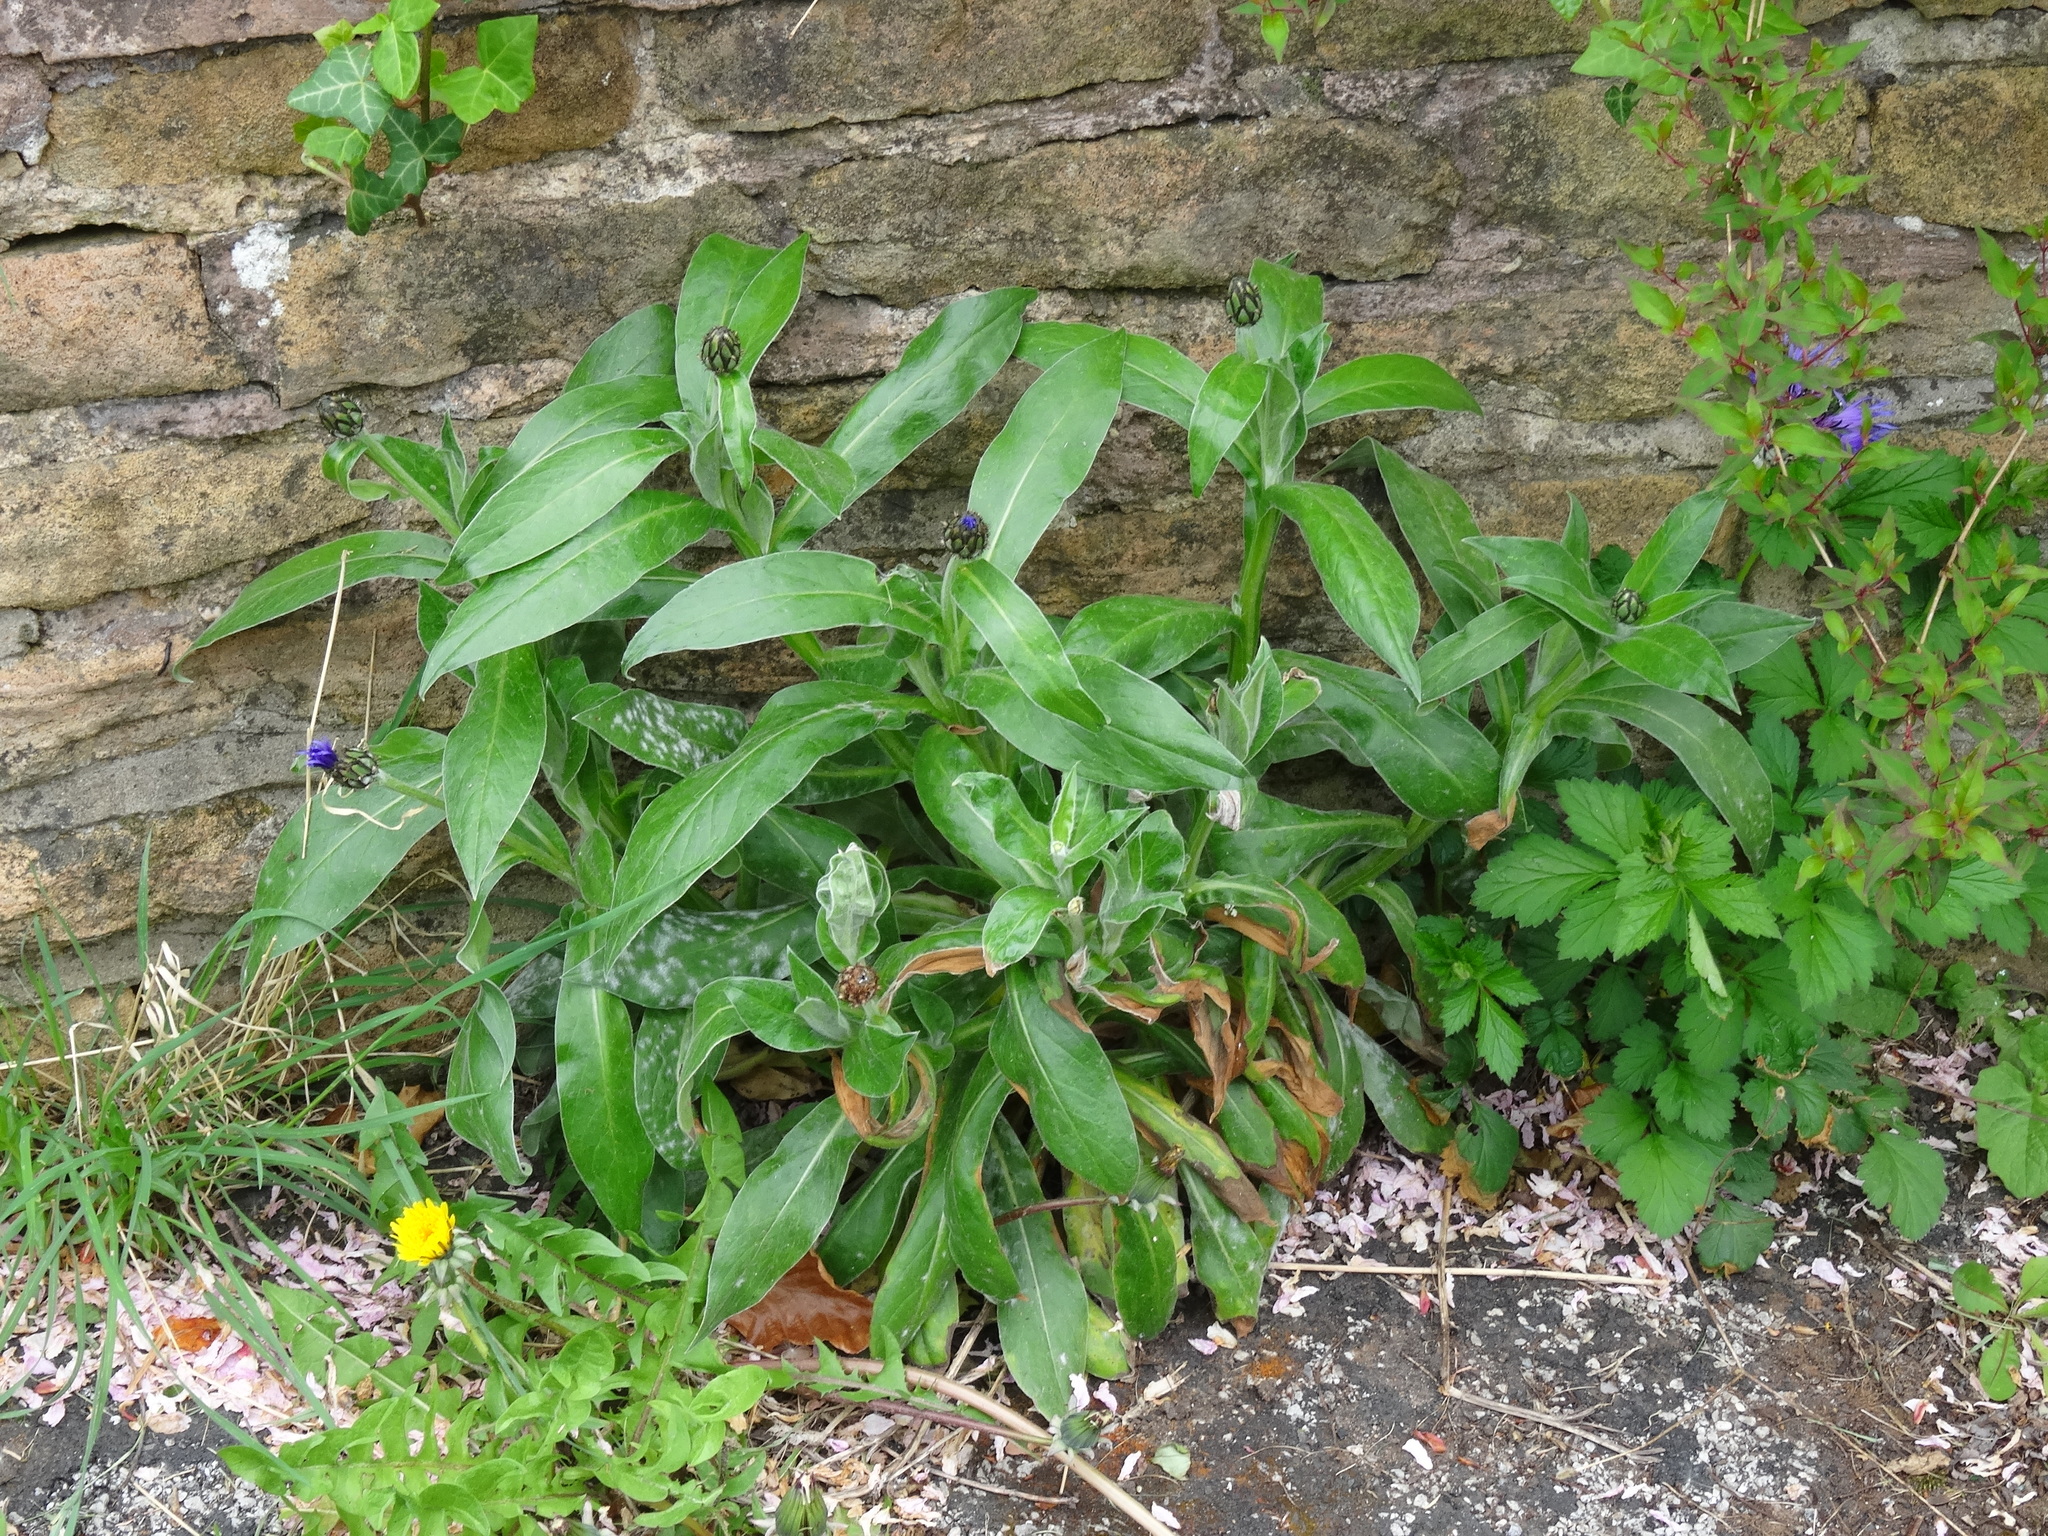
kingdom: Plantae
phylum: Tracheophyta
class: Magnoliopsida
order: Asterales
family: Asteraceae
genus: Centaurea
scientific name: Centaurea montana
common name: Perennial cornflower
